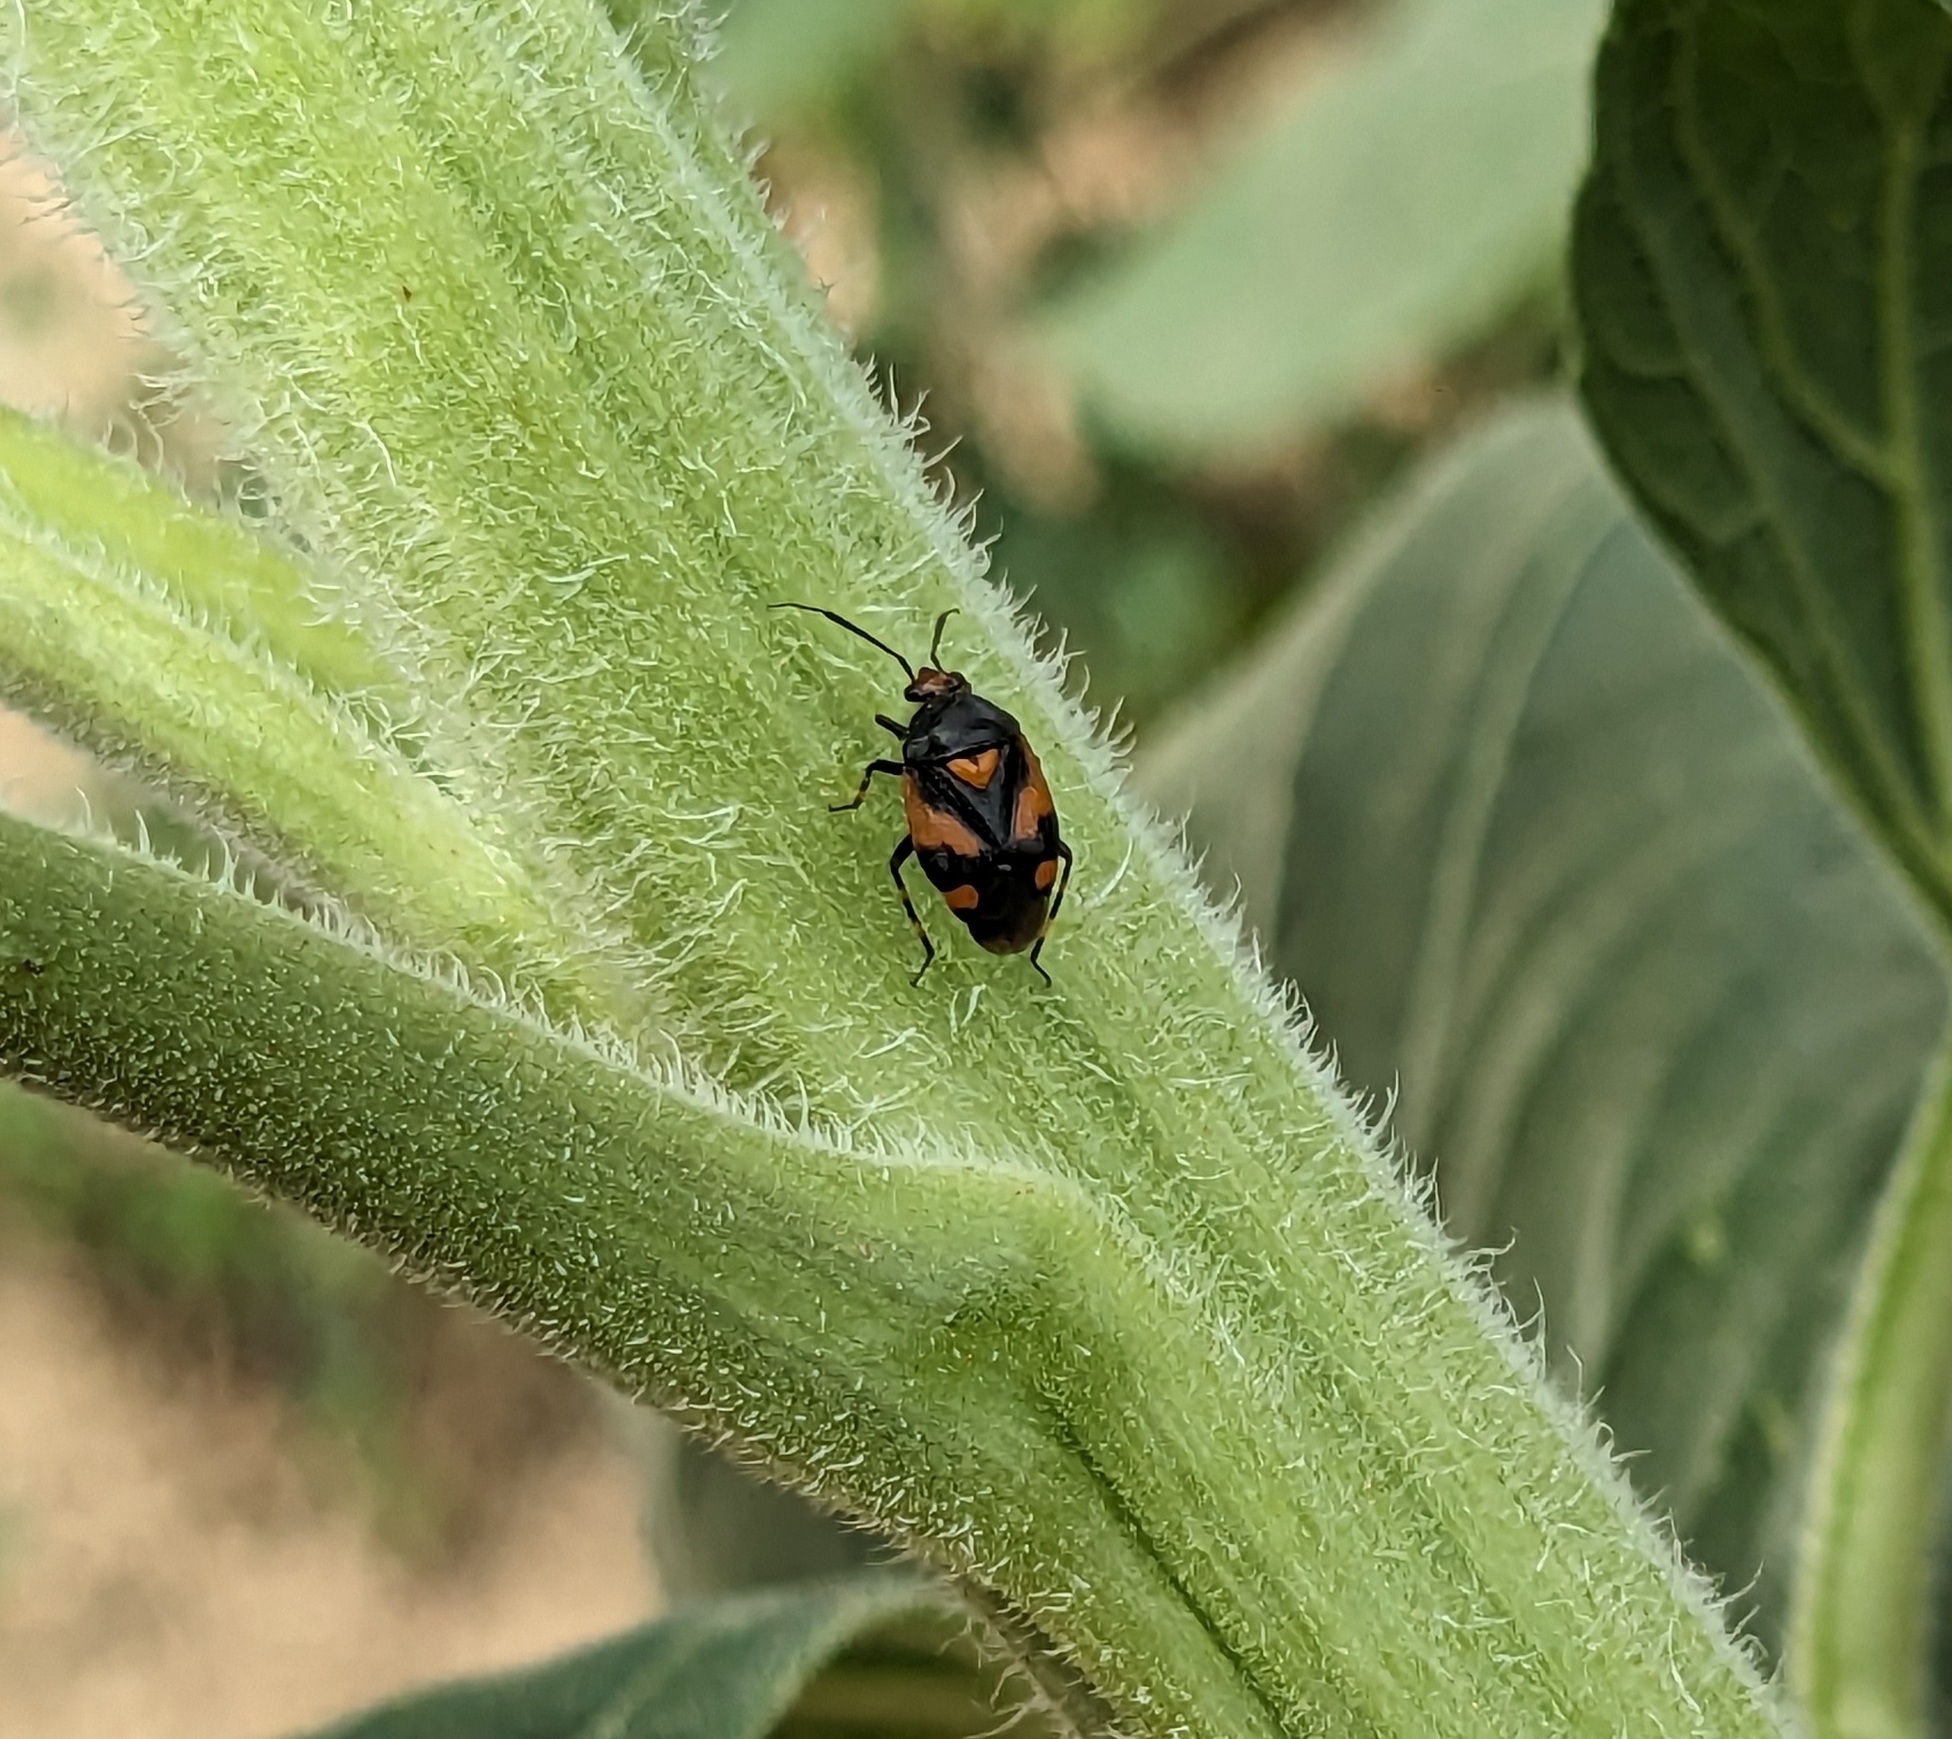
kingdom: Animalia
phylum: Arthropoda
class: Insecta
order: Hemiptera
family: Miridae
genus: Deraeocoris
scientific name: Deraeocoris schach
